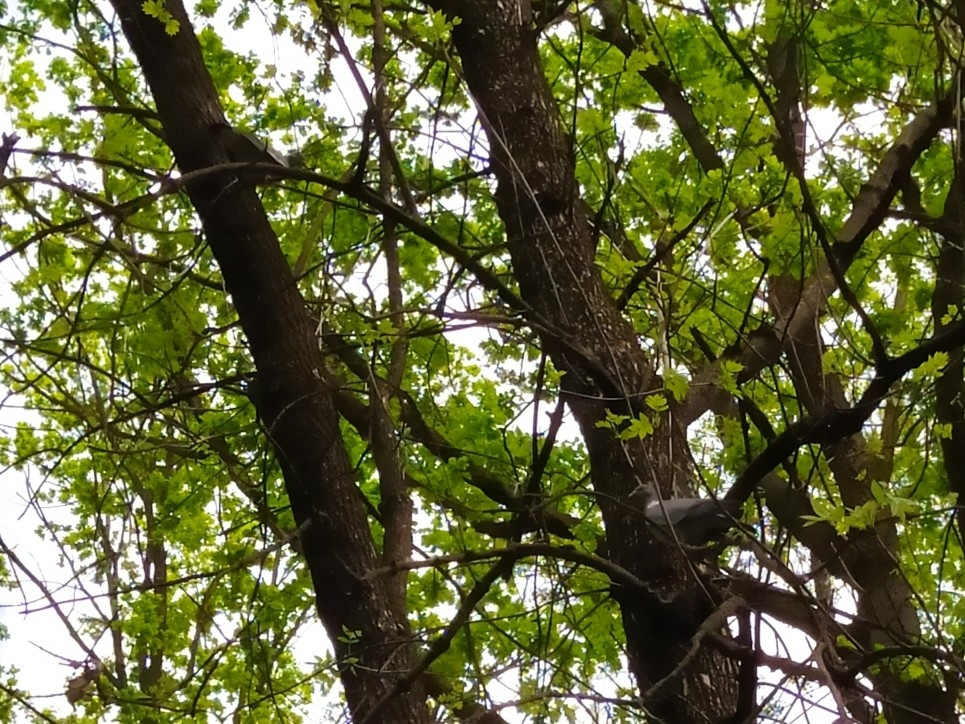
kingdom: Animalia
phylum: Chordata
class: Aves
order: Columbiformes
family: Columbidae
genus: Columba
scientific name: Columba palumbus
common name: Common wood pigeon
